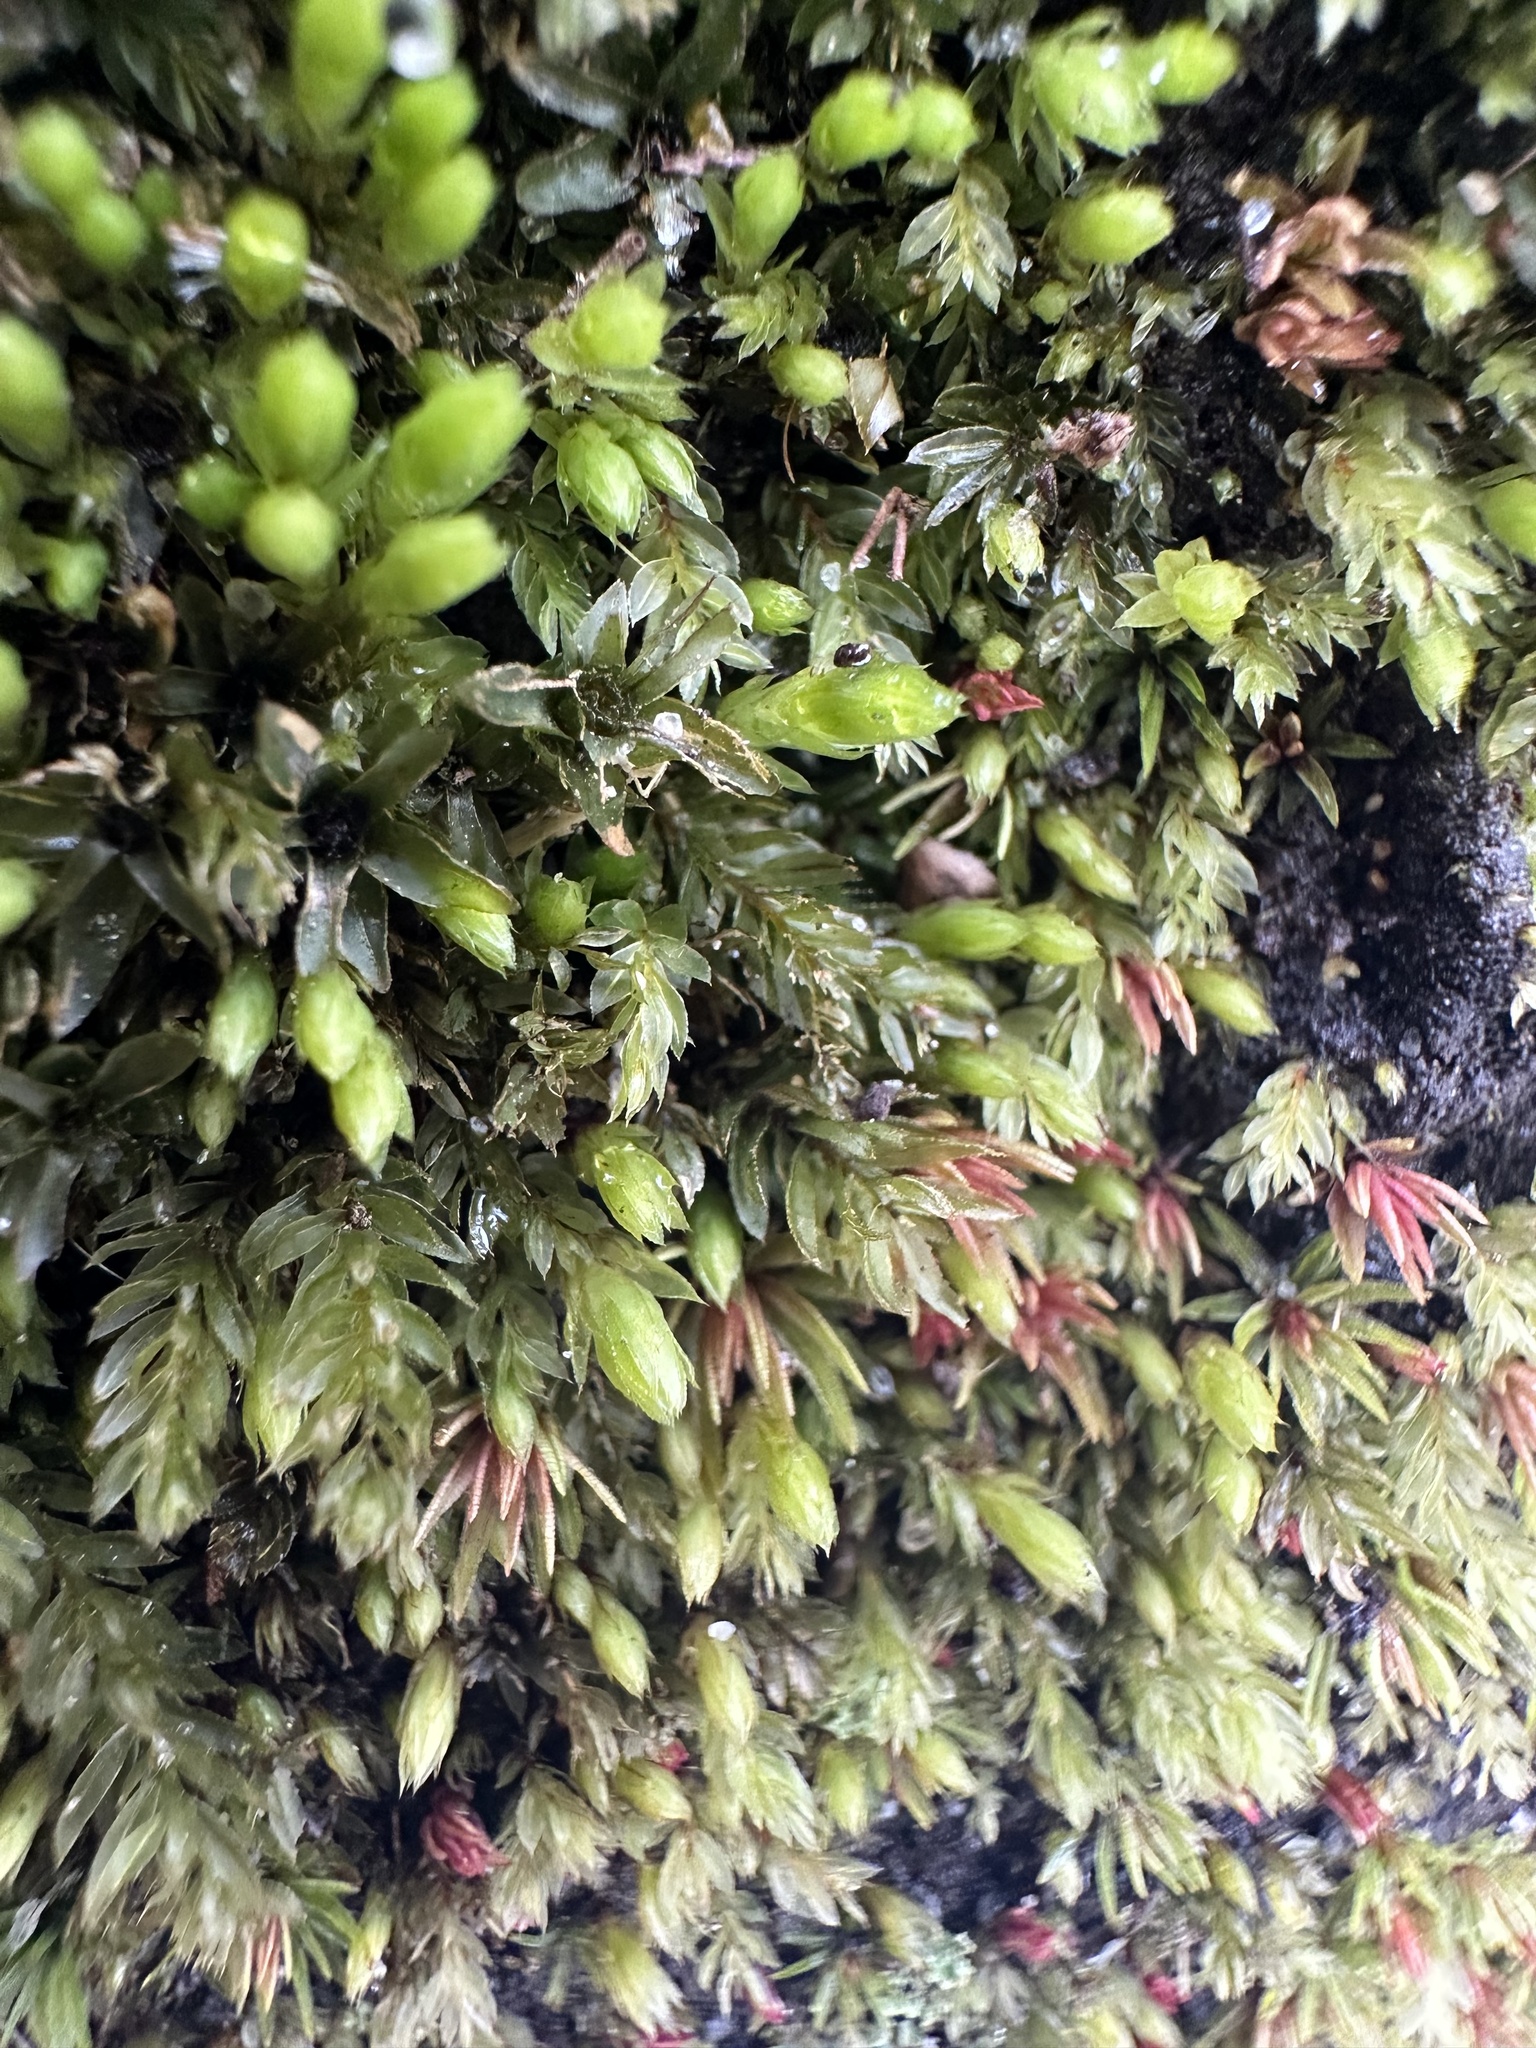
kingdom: Plantae
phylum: Bryophyta
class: Bryopsida
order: Bryales
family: Mniaceae
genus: Mnium
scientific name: Mnium hornum
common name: Swan's-neck leafy moss
